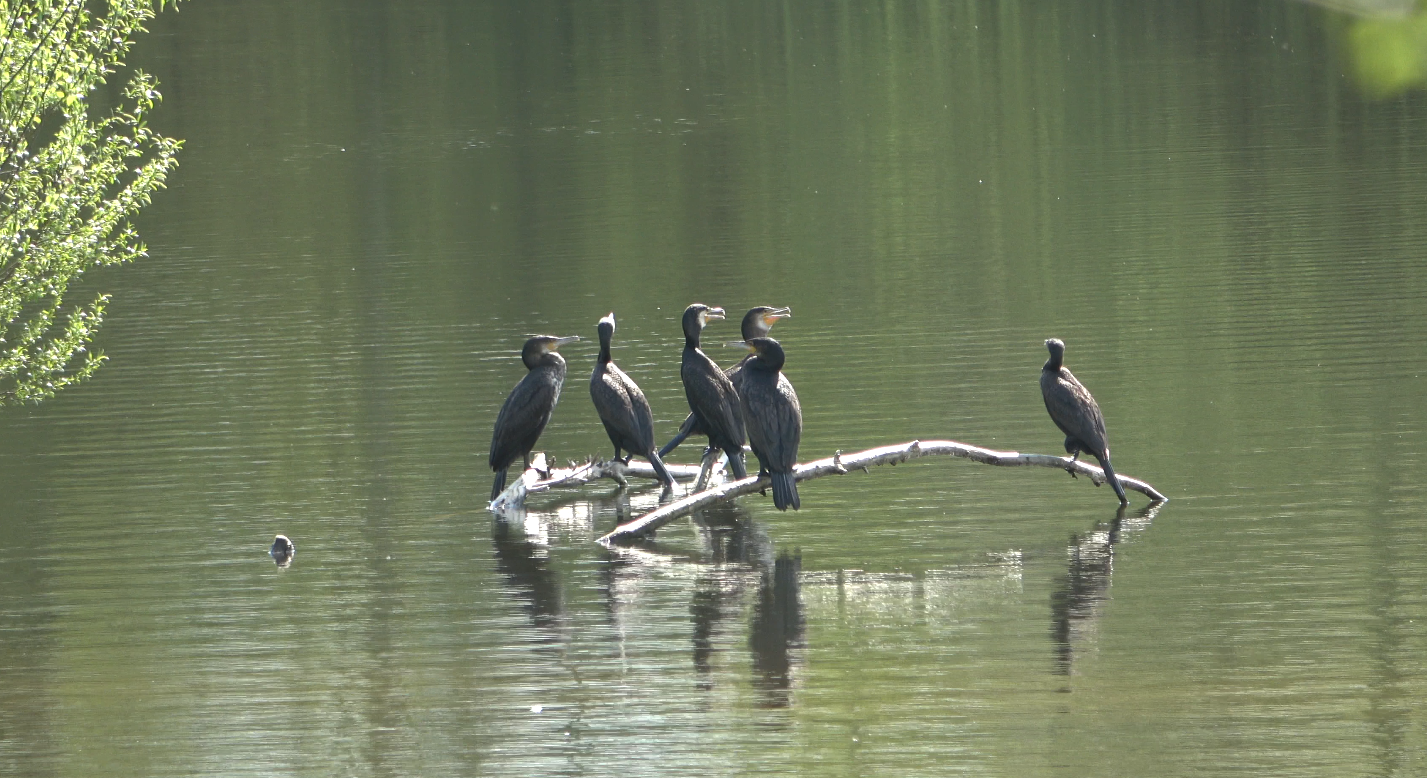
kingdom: Animalia
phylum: Chordata
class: Aves
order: Suliformes
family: Phalacrocoracidae
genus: Phalacrocorax
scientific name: Phalacrocorax carbo
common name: Great cormorant
